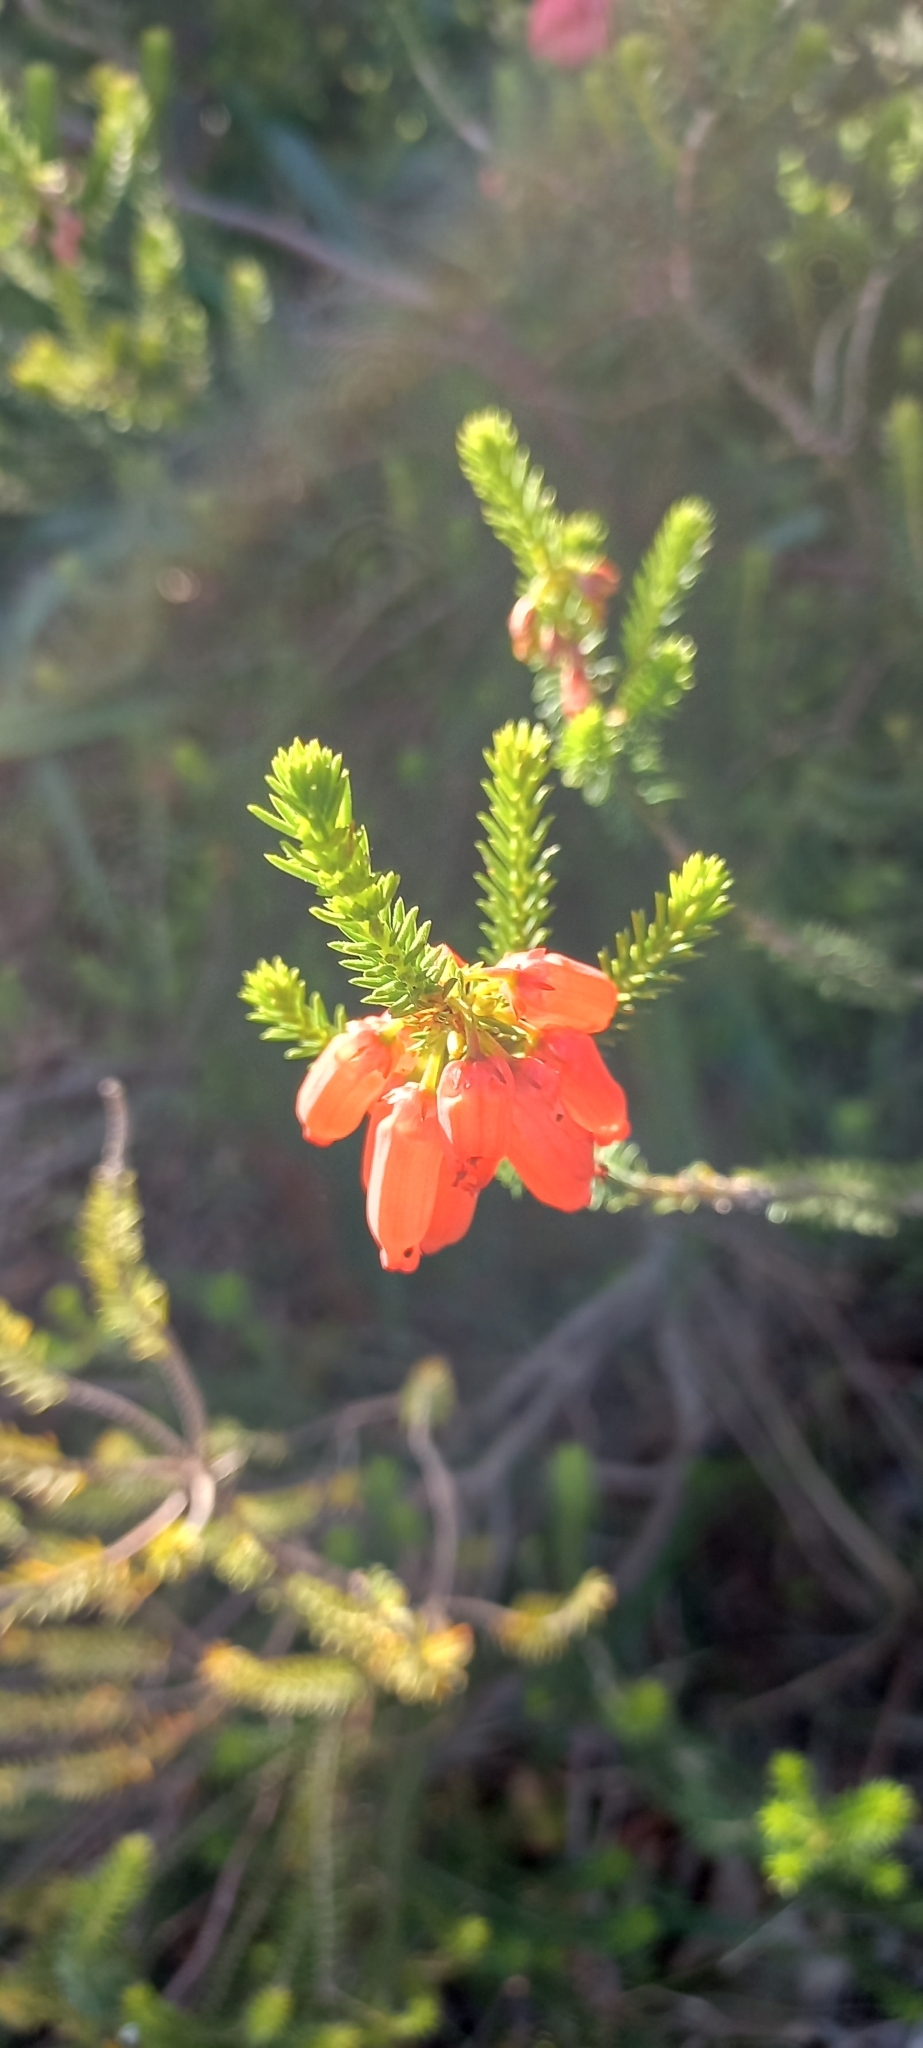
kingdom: Plantae
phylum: Tracheophyta
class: Magnoliopsida
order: Ericales
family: Ericaceae
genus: Erica
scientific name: Erica cerinthoides
